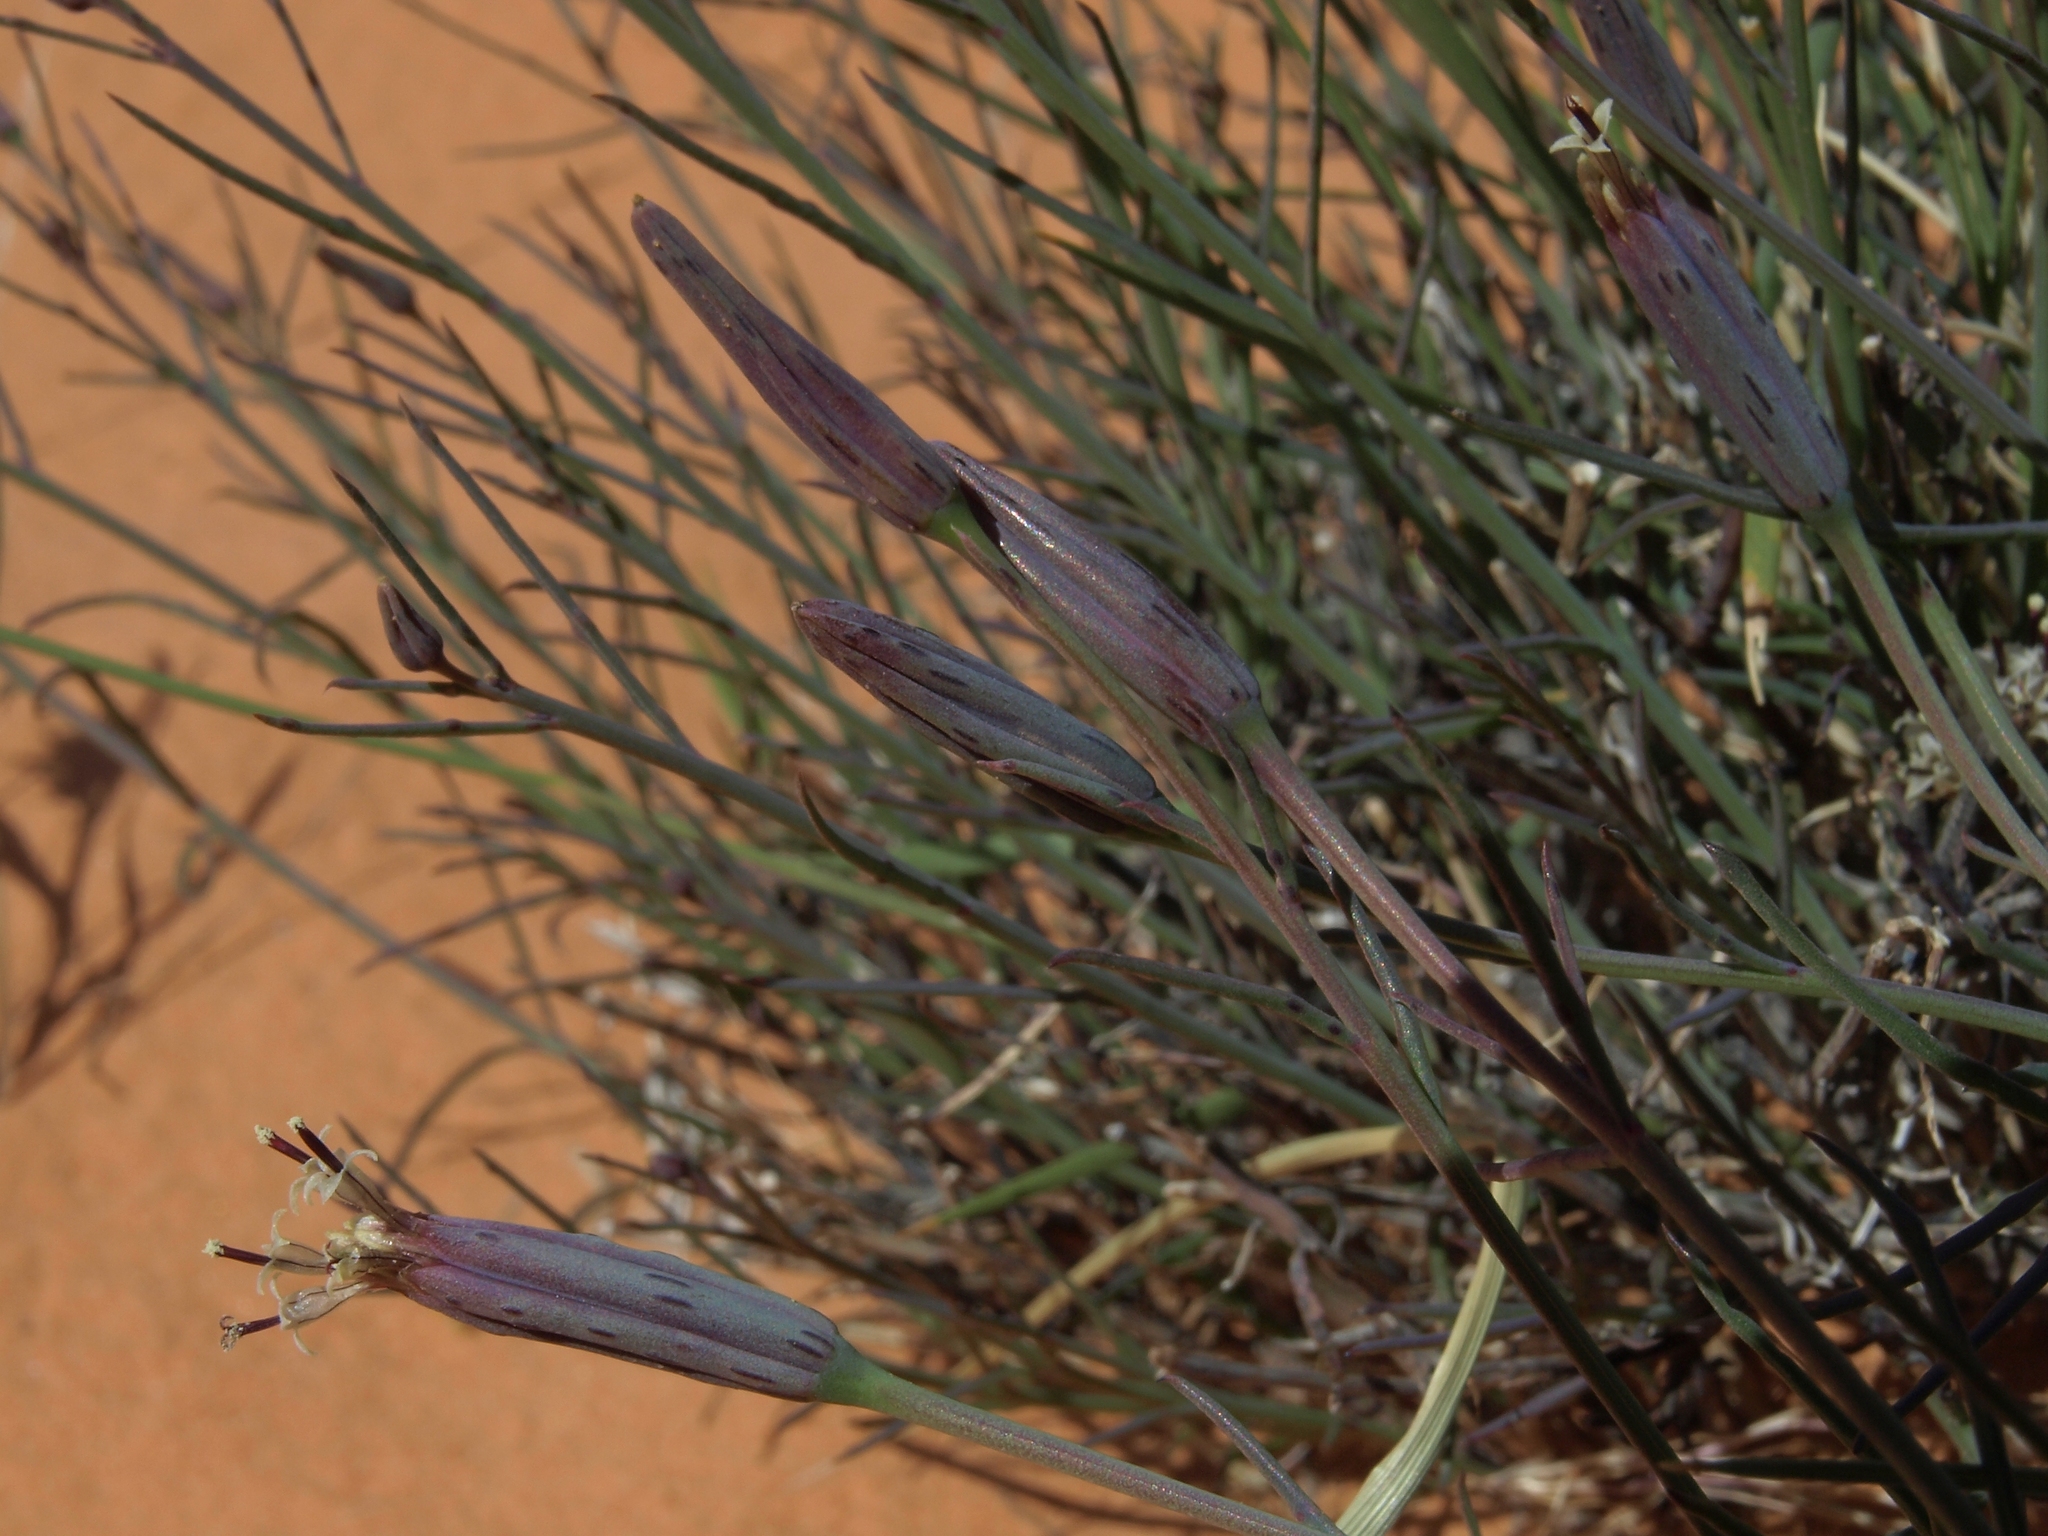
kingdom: Plantae
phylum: Tracheophyta
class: Magnoliopsida
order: Asterales
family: Asteraceae
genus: Porophyllum
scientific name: Porophyllum gracile
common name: Odora
